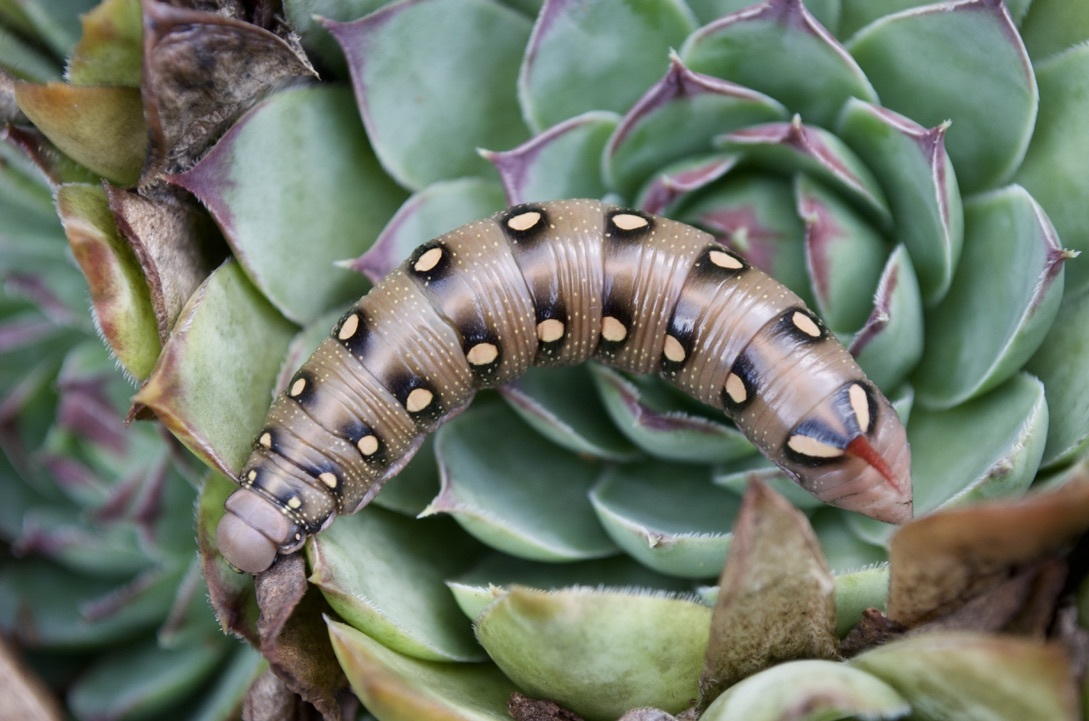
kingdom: Animalia
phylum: Arthropoda
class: Insecta
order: Lepidoptera
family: Sphingidae
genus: Hyles
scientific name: Hyles gallii
